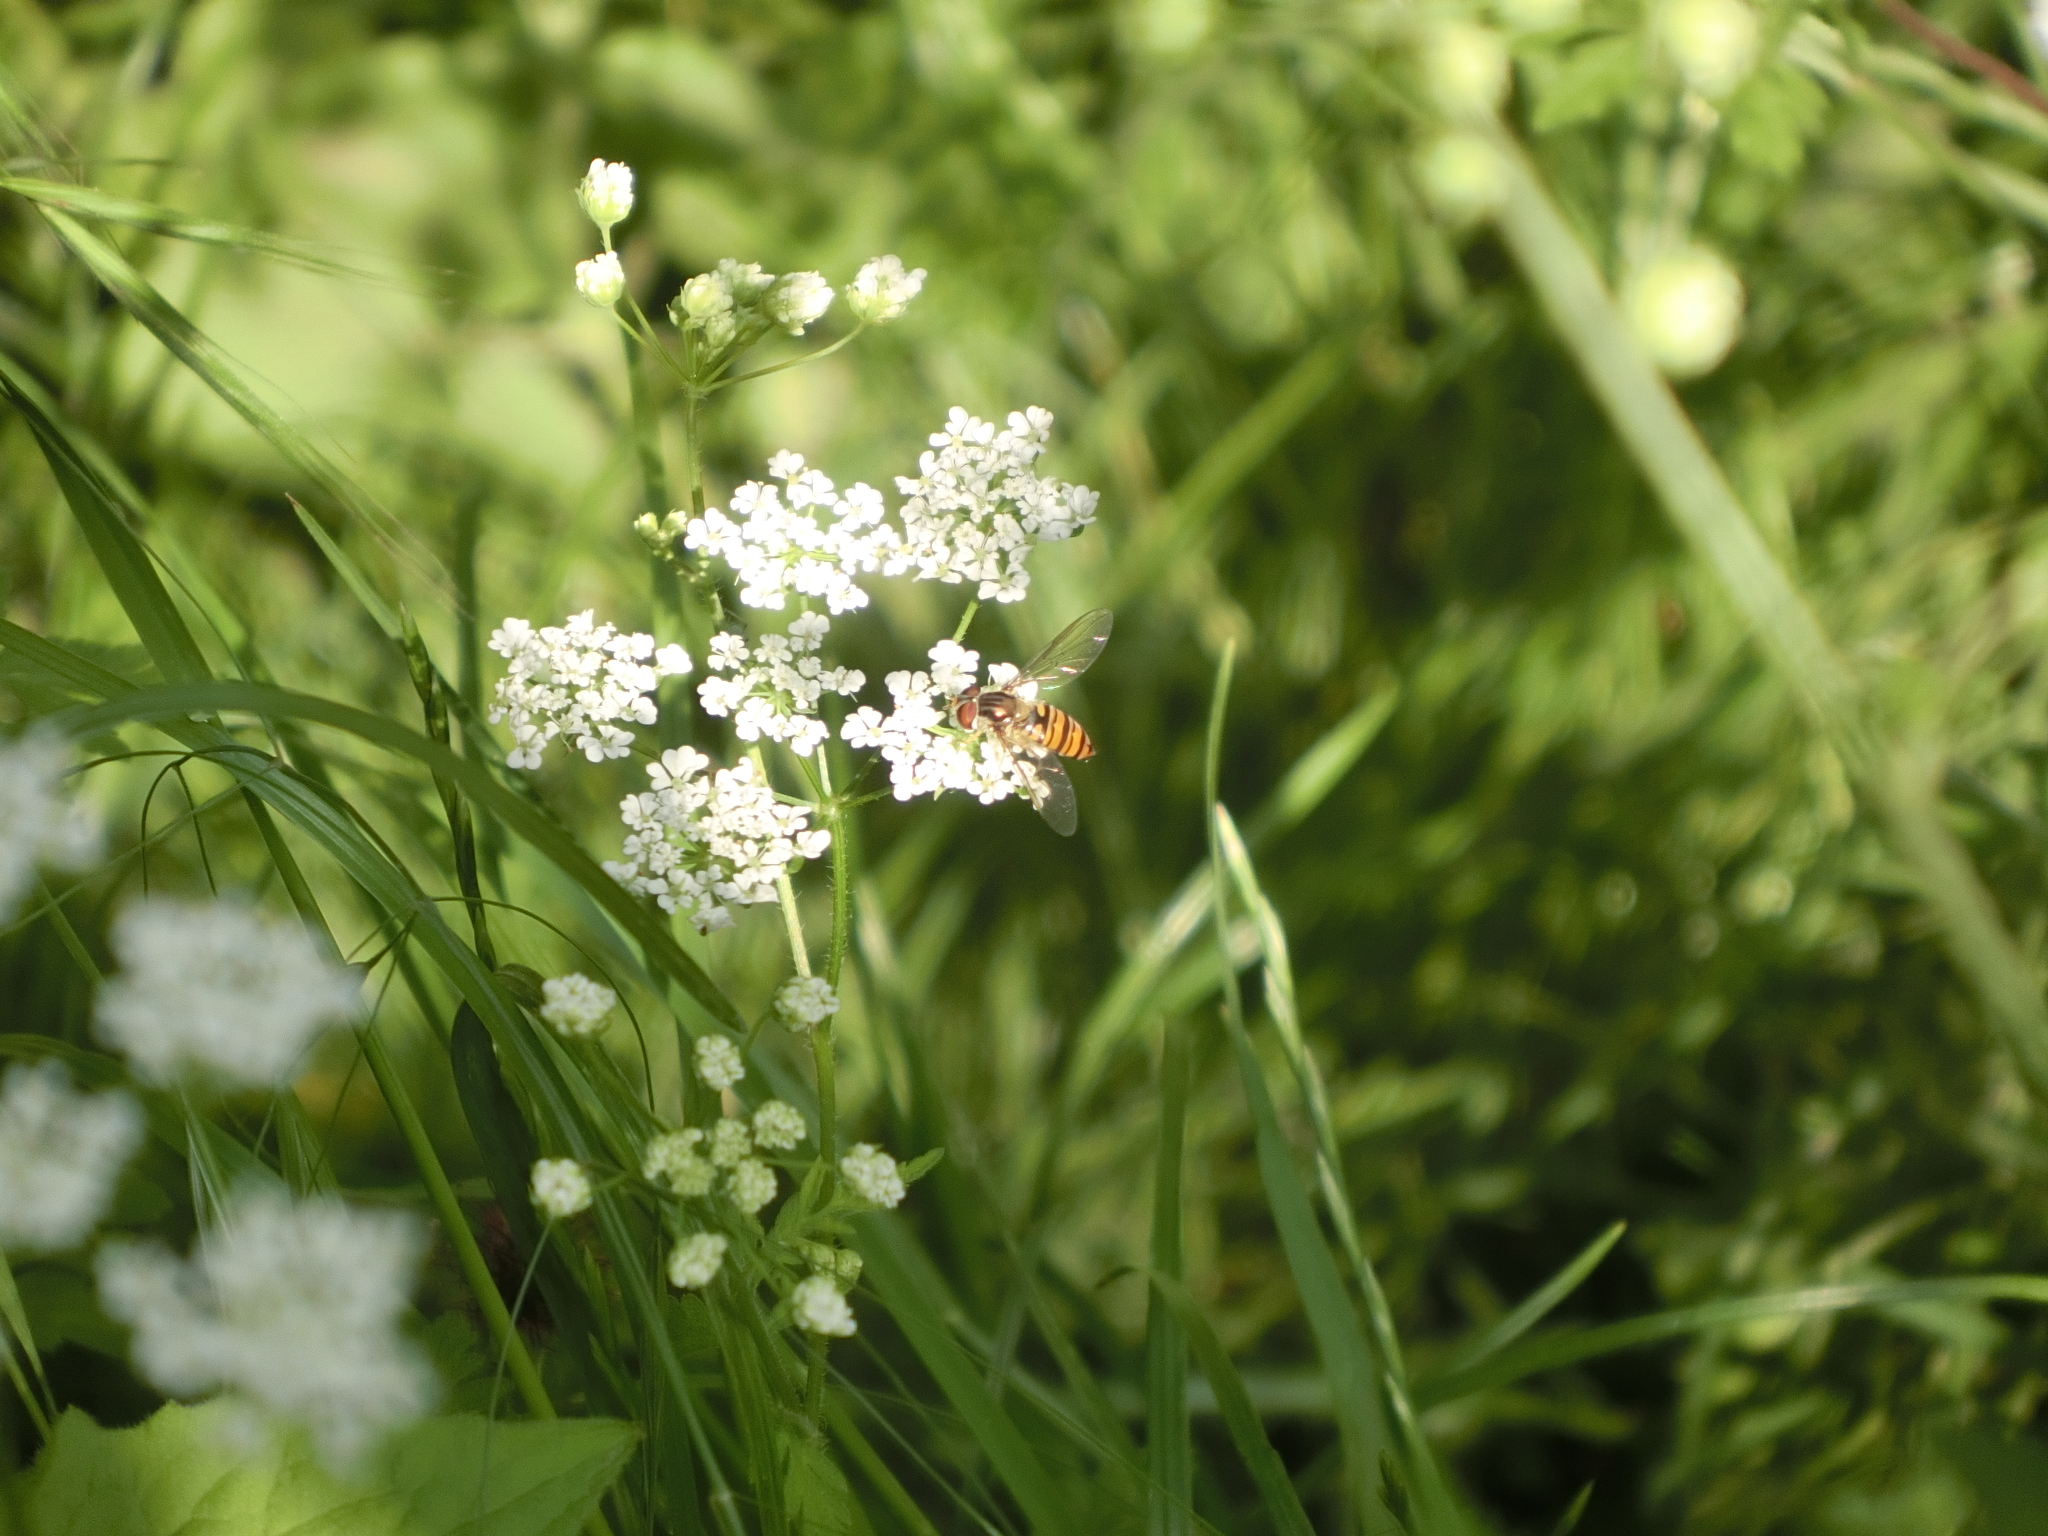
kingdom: Animalia
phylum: Arthropoda
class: Insecta
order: Diptera
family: Syrphidae
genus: Episyrphus
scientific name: Episyrphus balteatus
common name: Marmalade hoverfly
